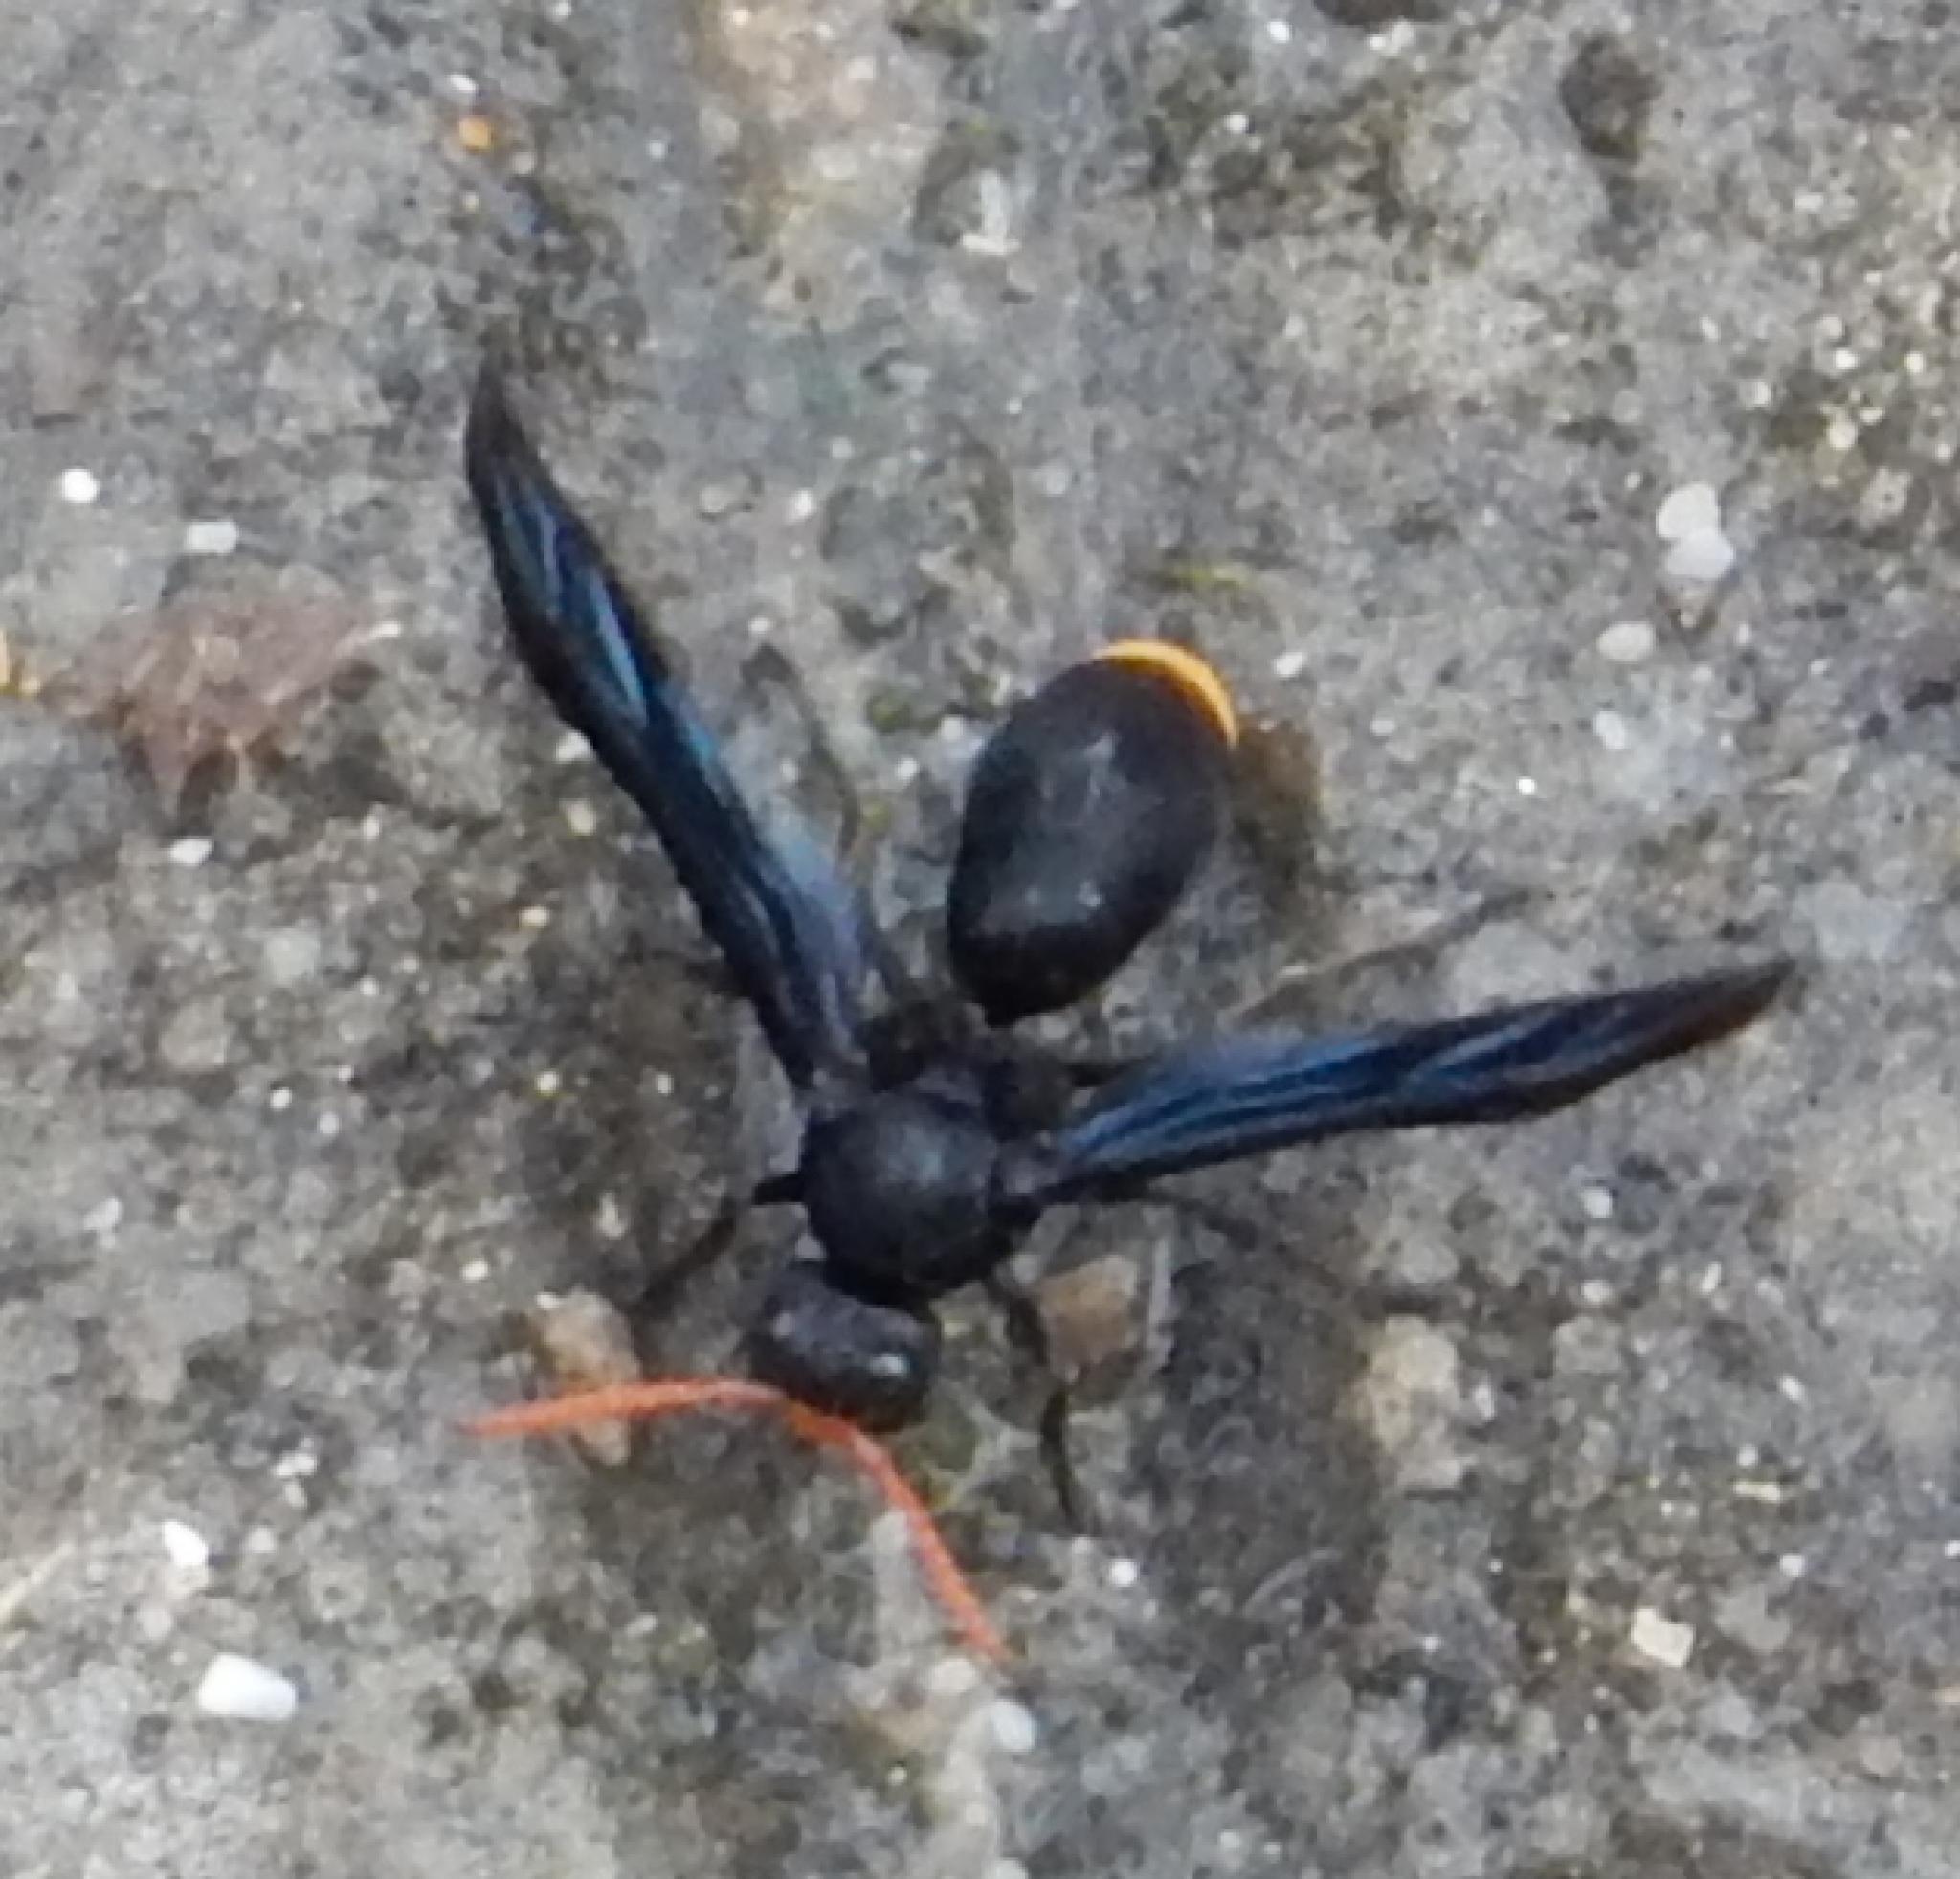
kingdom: Animalia
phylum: Arthropoda
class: Insecta
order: Hymenoptera
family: Vespidae
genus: Synagris
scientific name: Synagris
